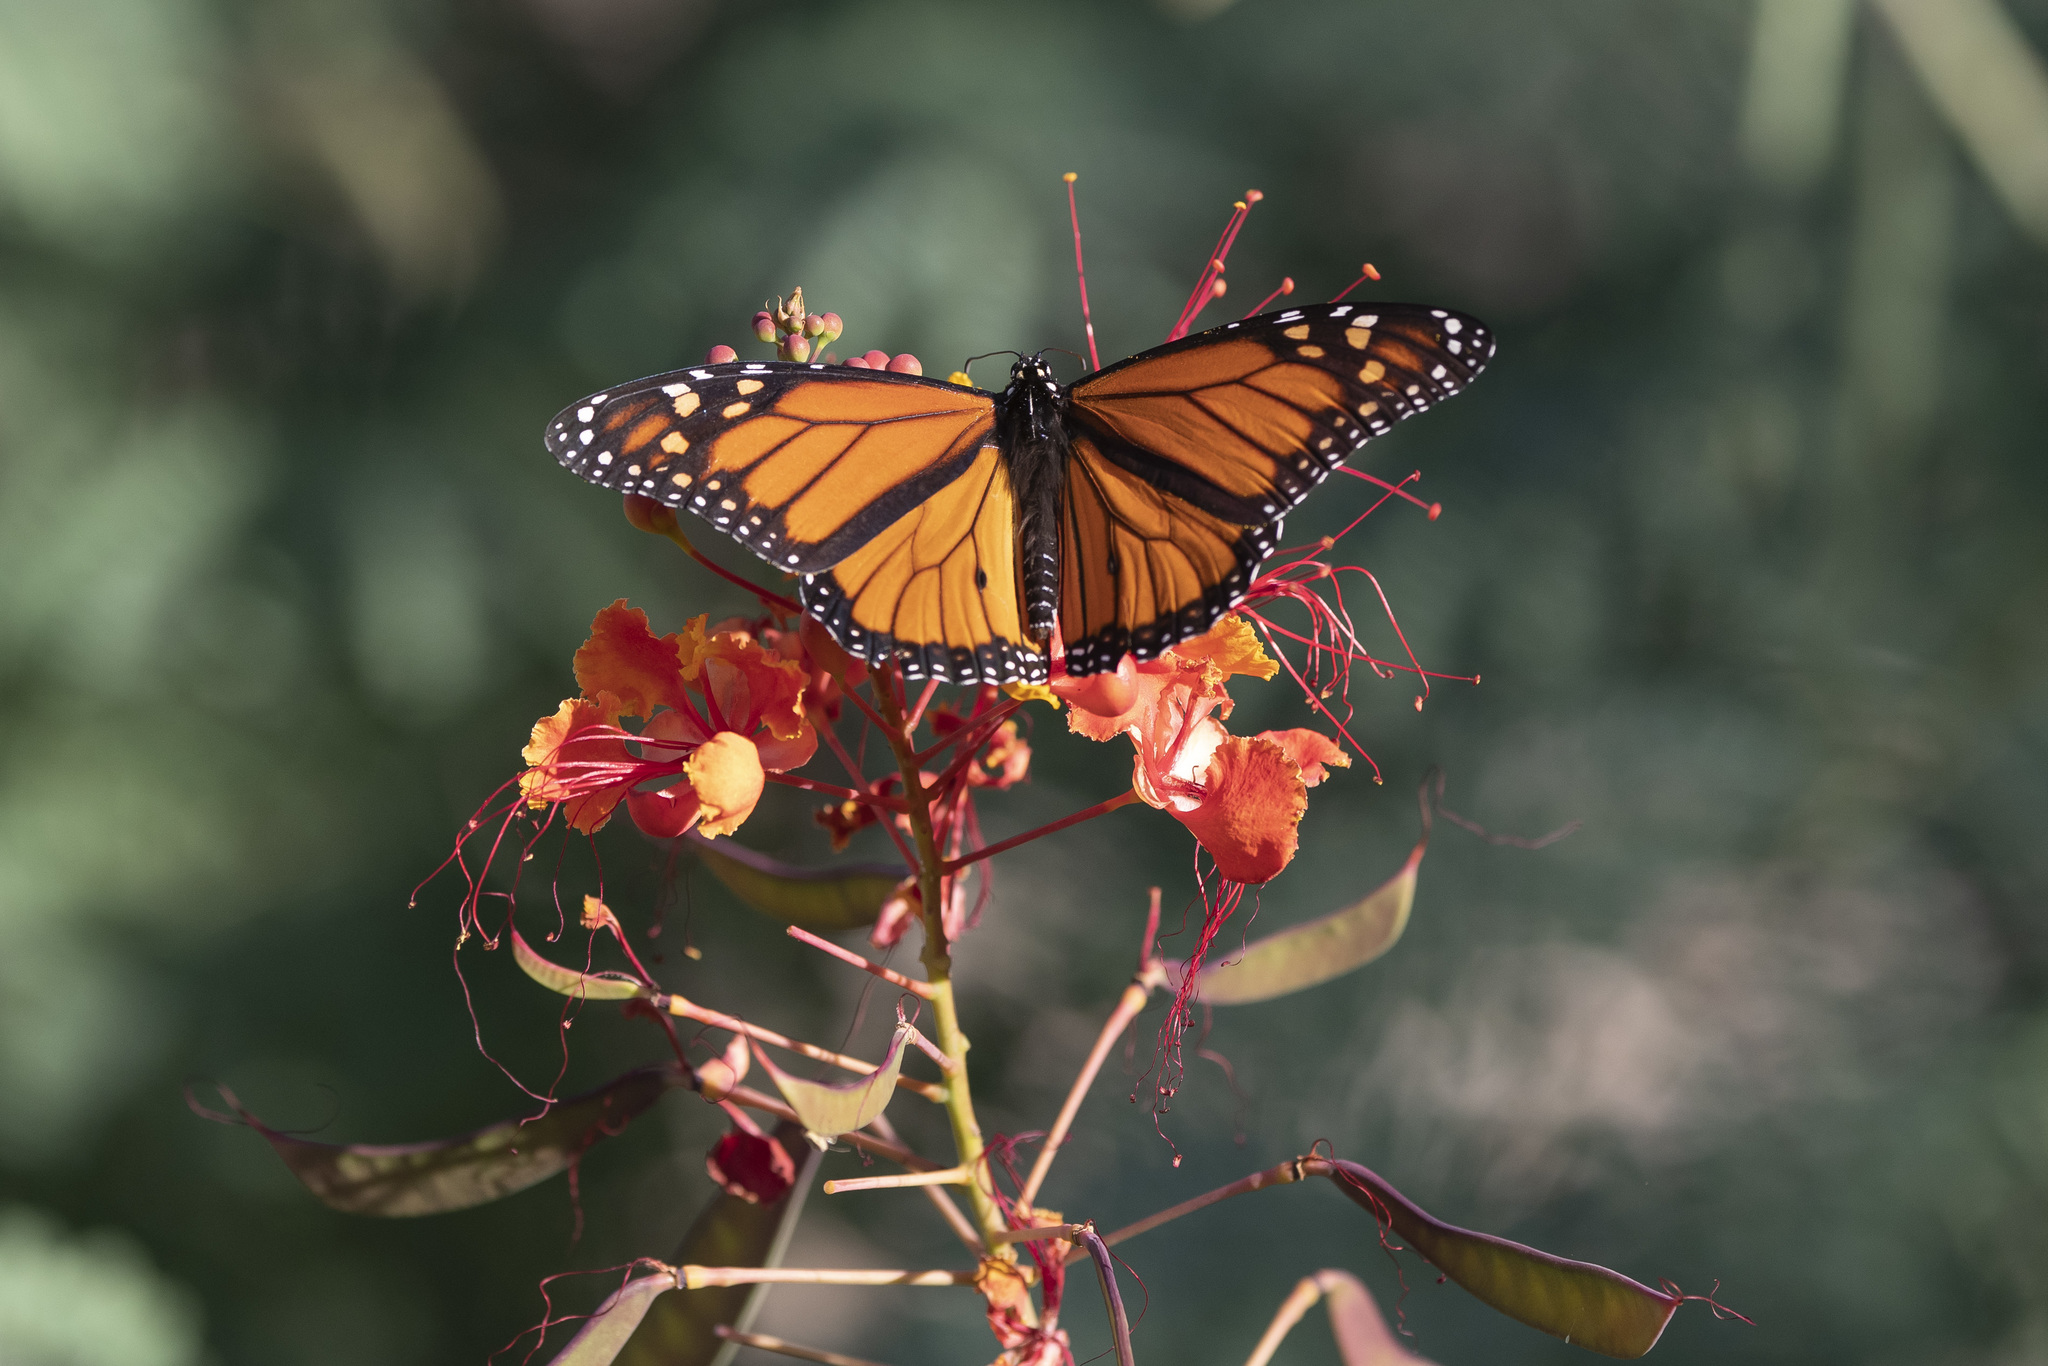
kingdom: Animalia
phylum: Arthropoda
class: Insecta
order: Lepidoptera
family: Nymphalidae
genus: Danaus
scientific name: Danaus plexippus
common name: Monarch
